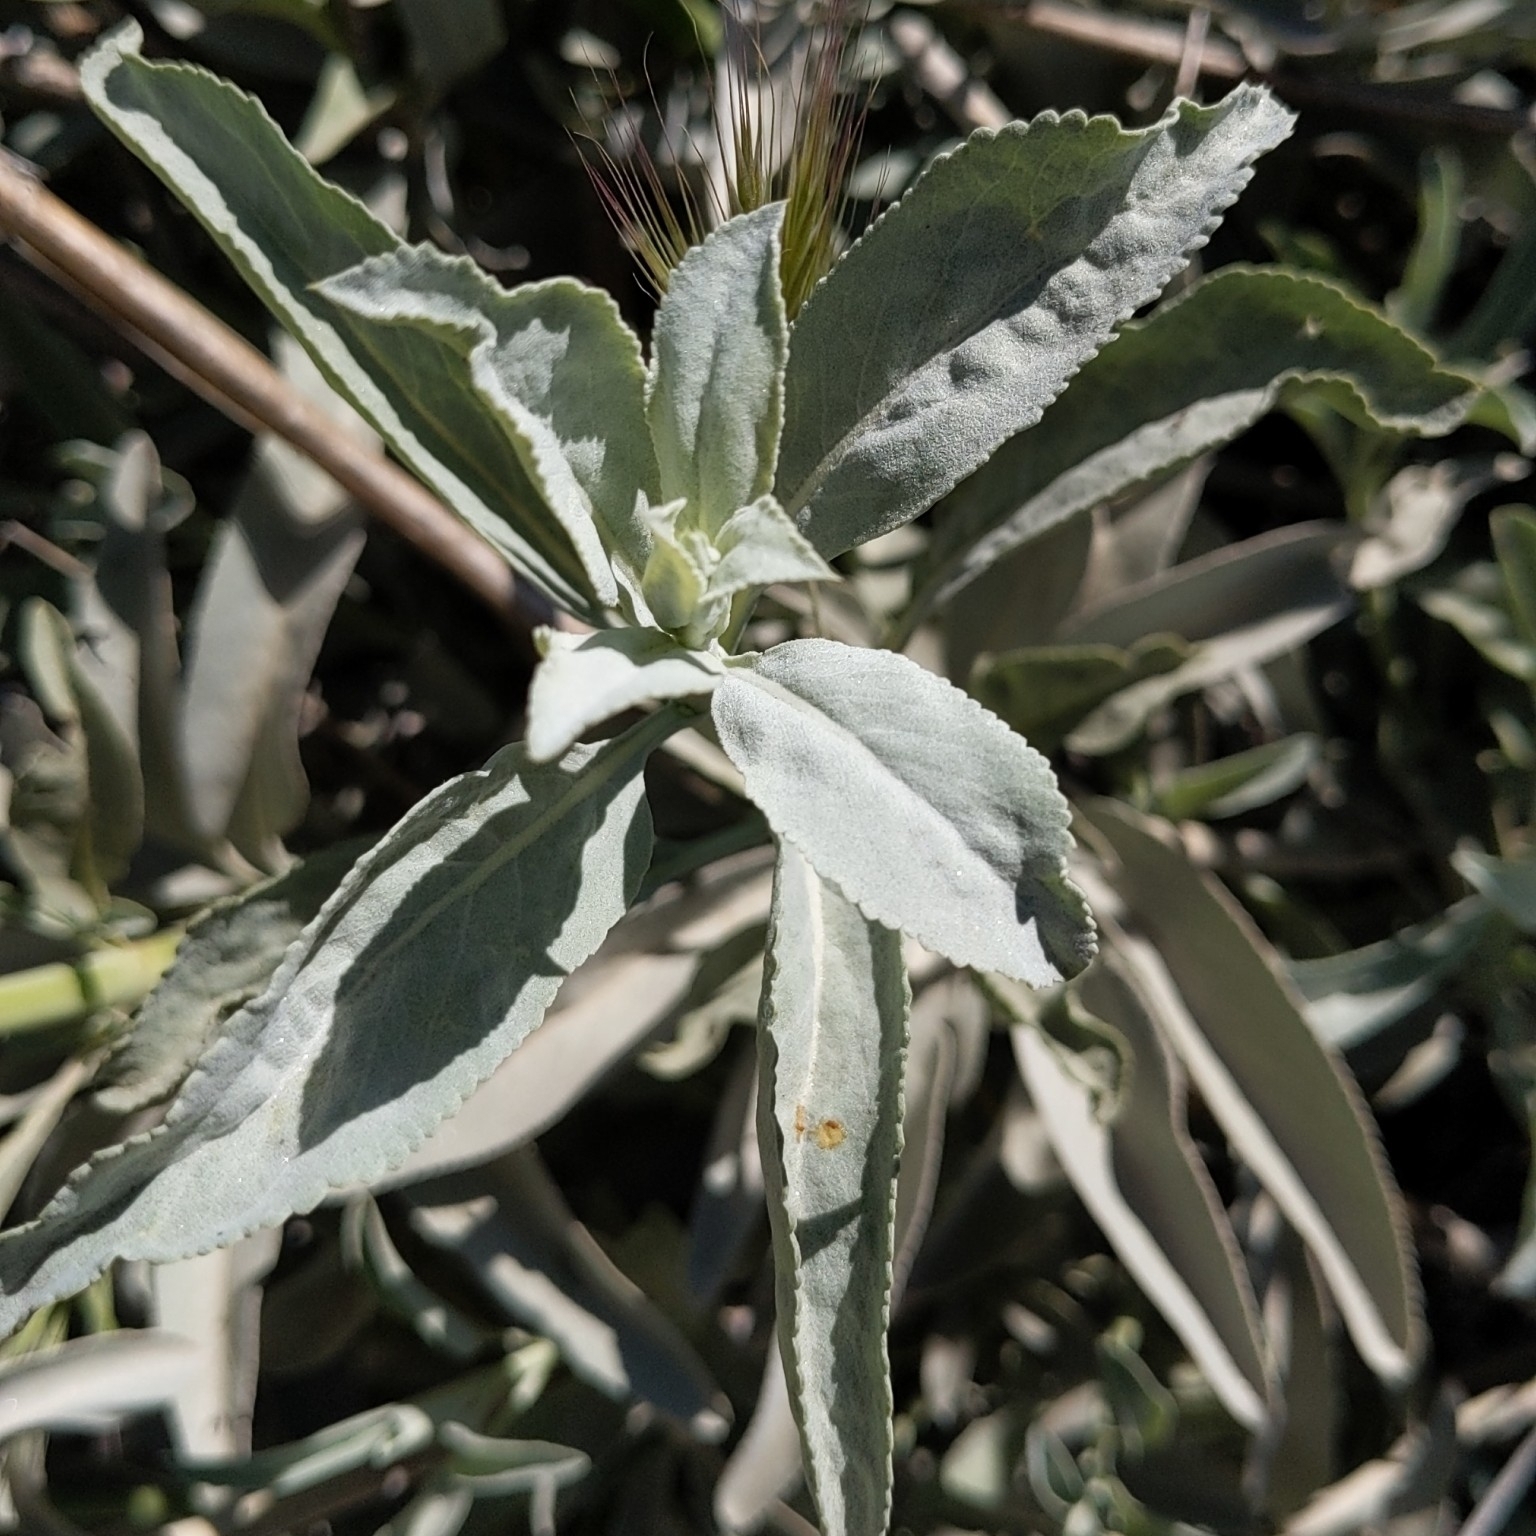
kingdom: Plantae
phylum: Tracheophyta
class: Magnoliopsida
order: Lamiales
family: Lamiaceae
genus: Salvia
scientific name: Salvia apiana
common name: White sage
